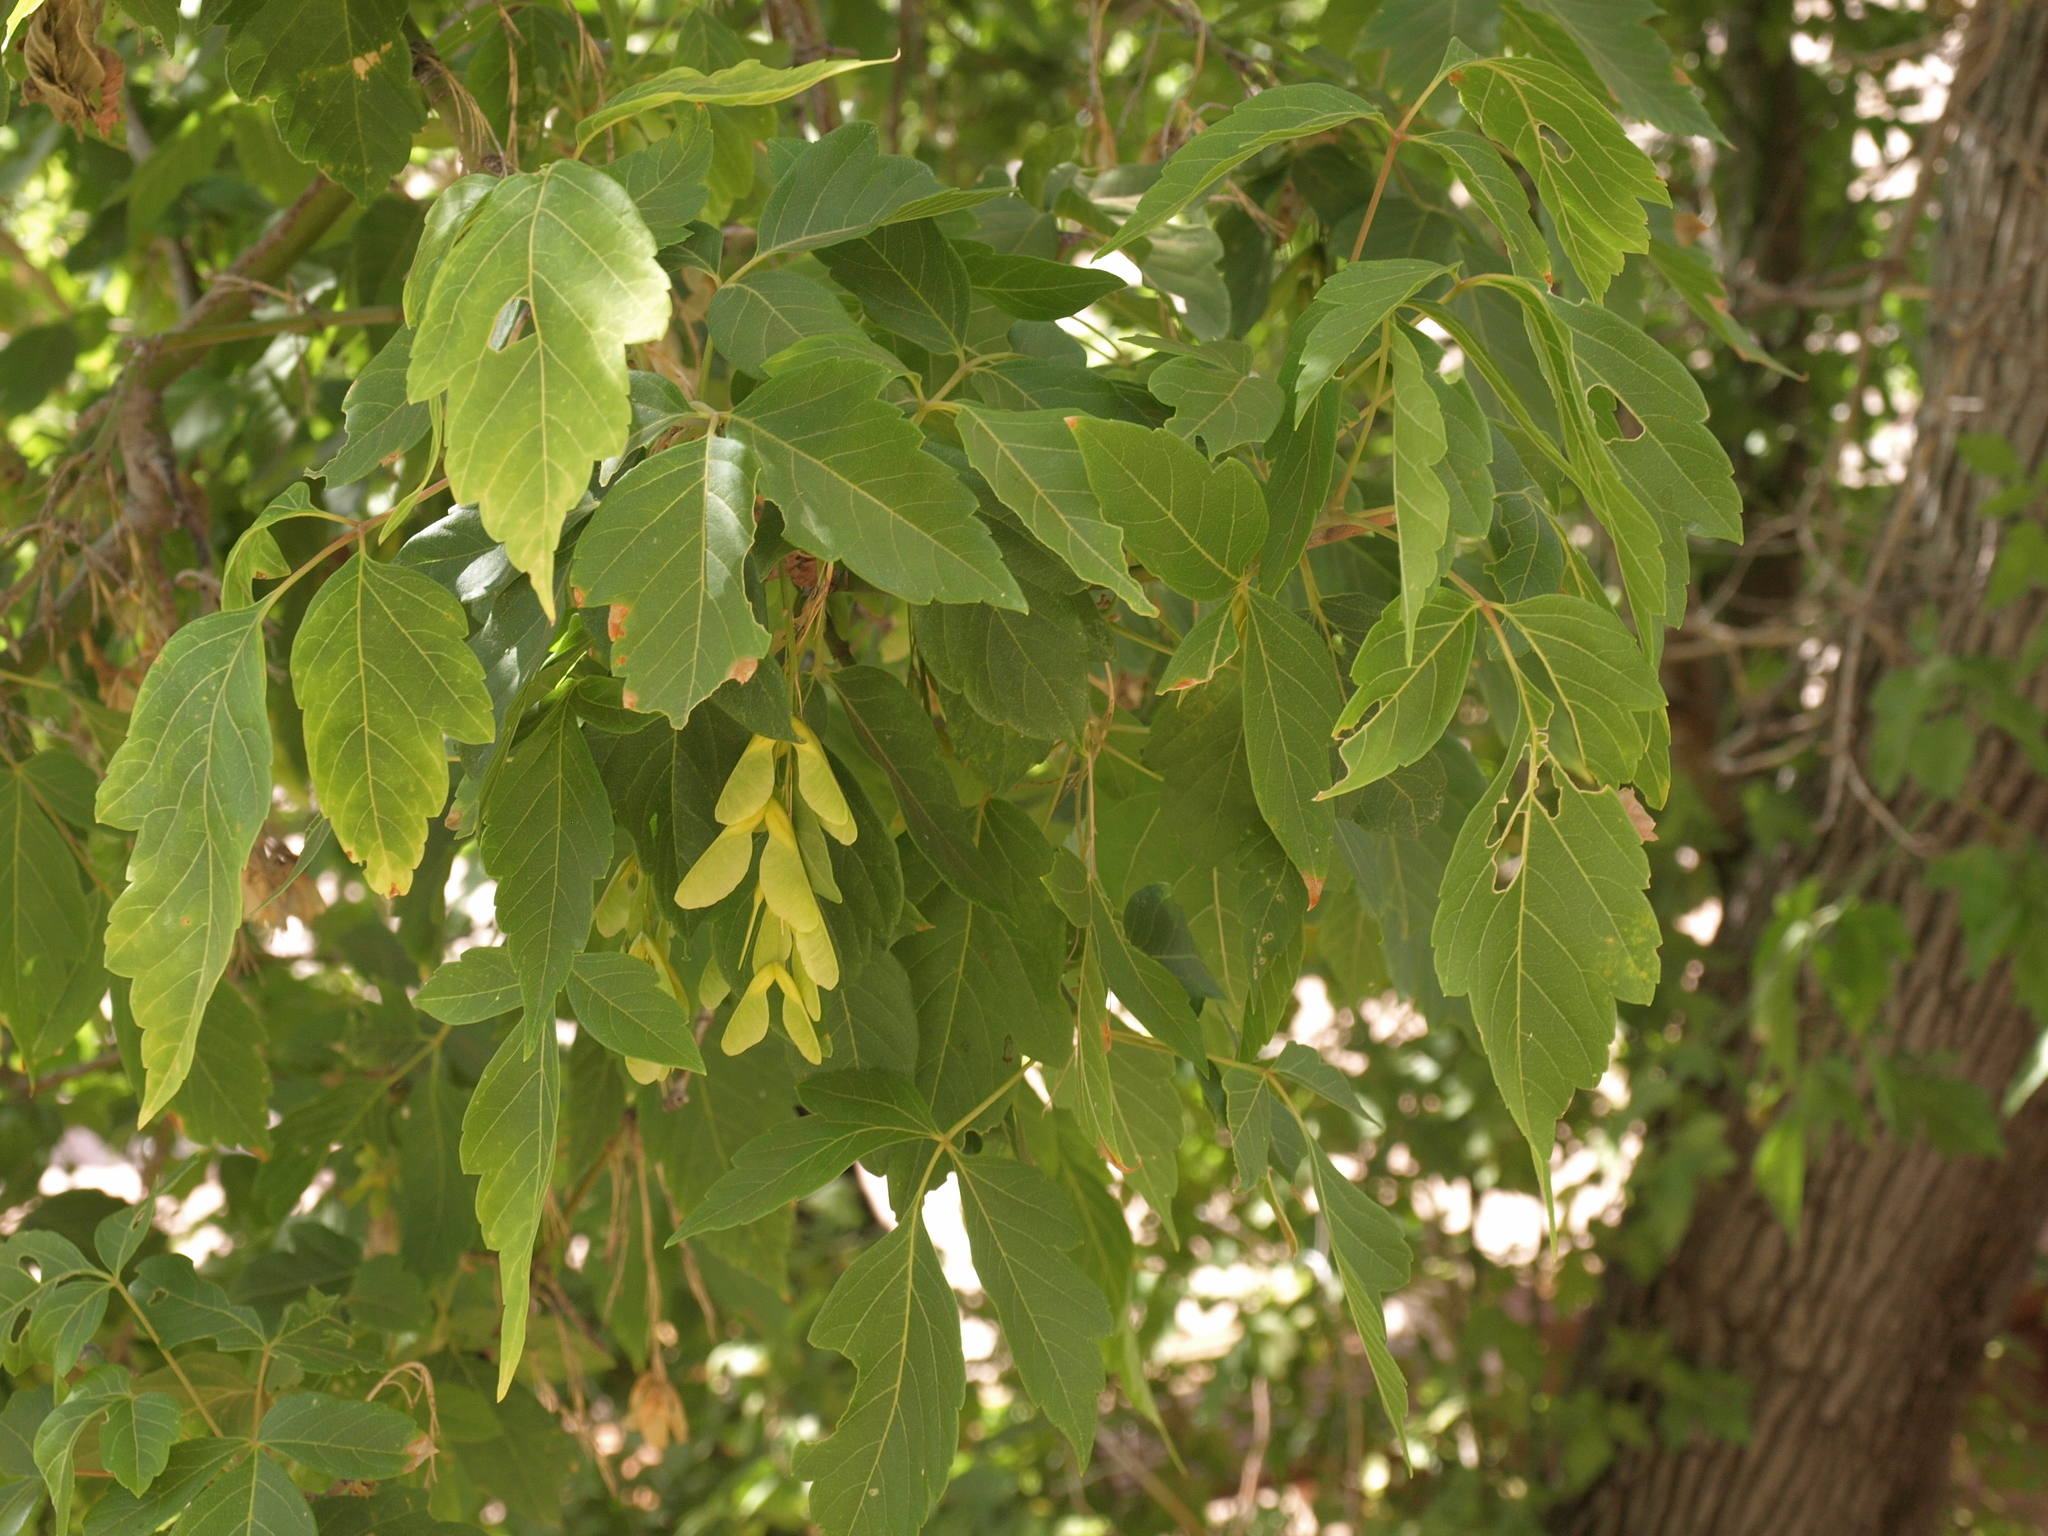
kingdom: Plantae
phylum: Tracheophyta
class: Magnoliopsida
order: Sapindales
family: Sapindaceae
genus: Acer
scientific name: Acer negundo
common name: Ashleaf maple
